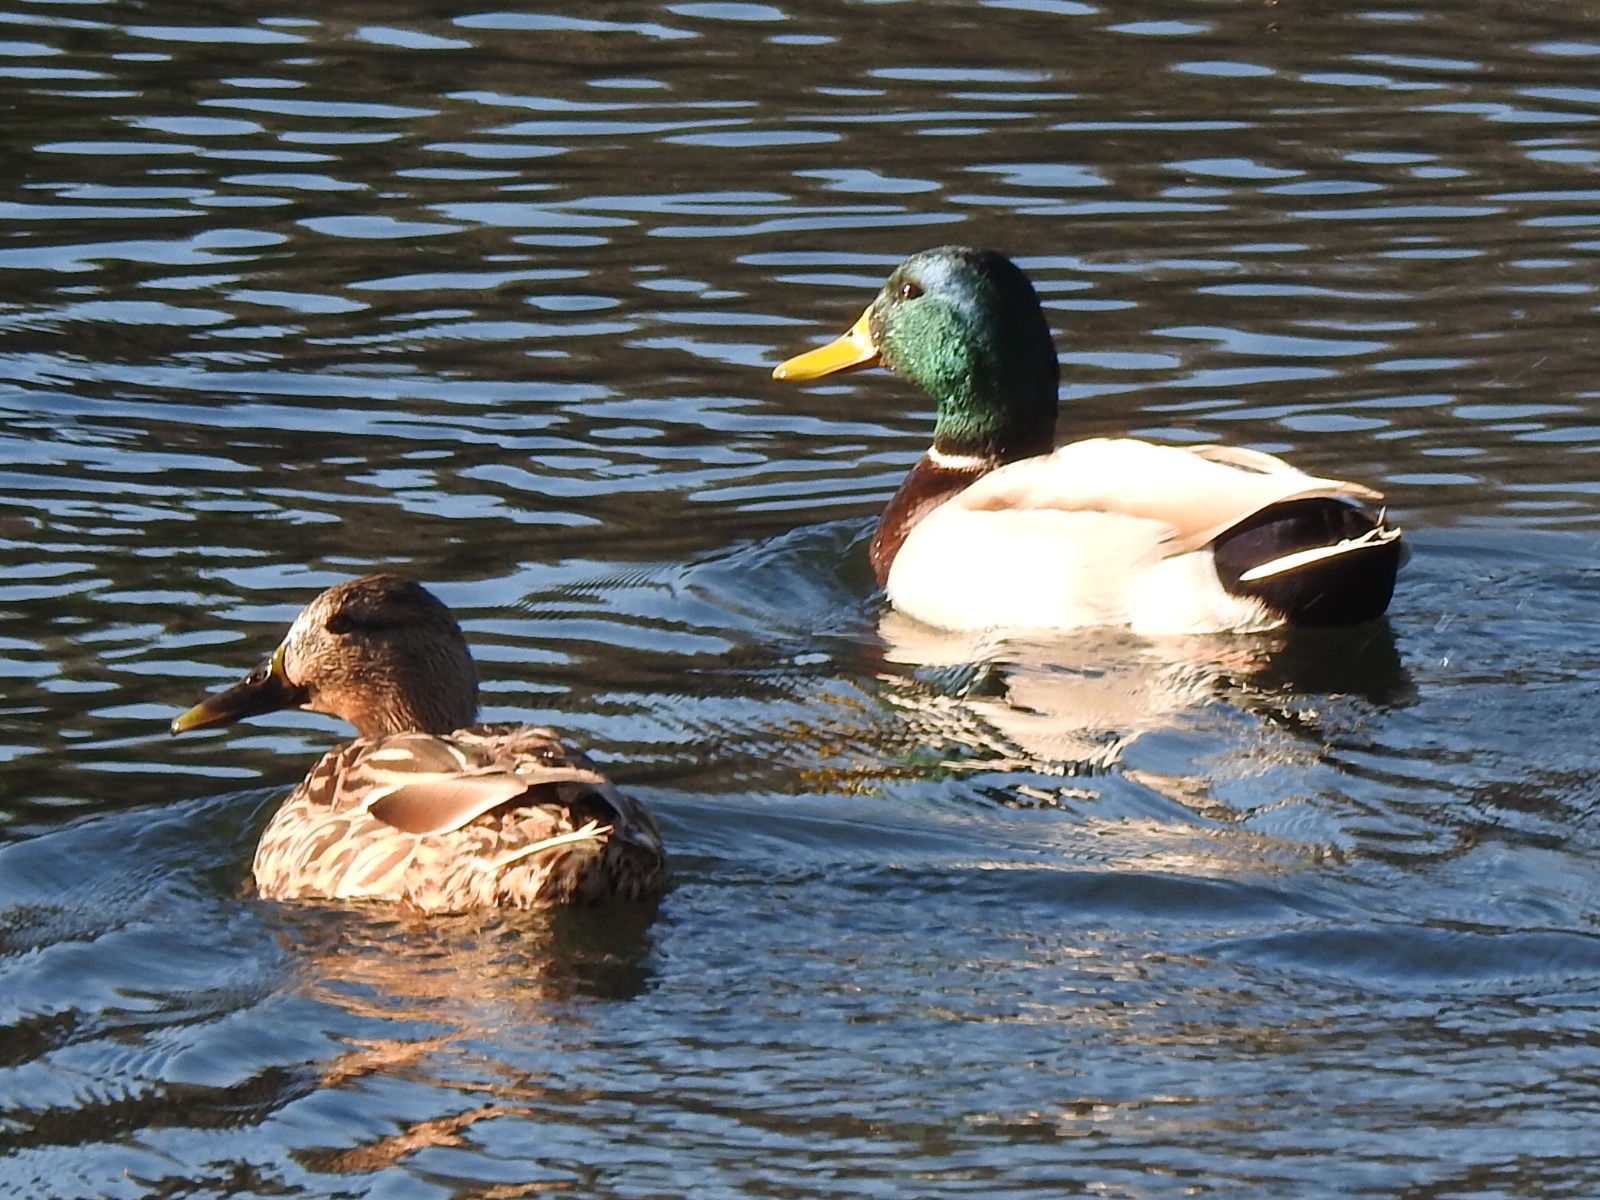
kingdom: Animalia
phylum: Chordata
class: Aves
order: Anseriformes
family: Anatidae
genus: Anas
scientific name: Anas platyrhynchos
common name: Mallard
